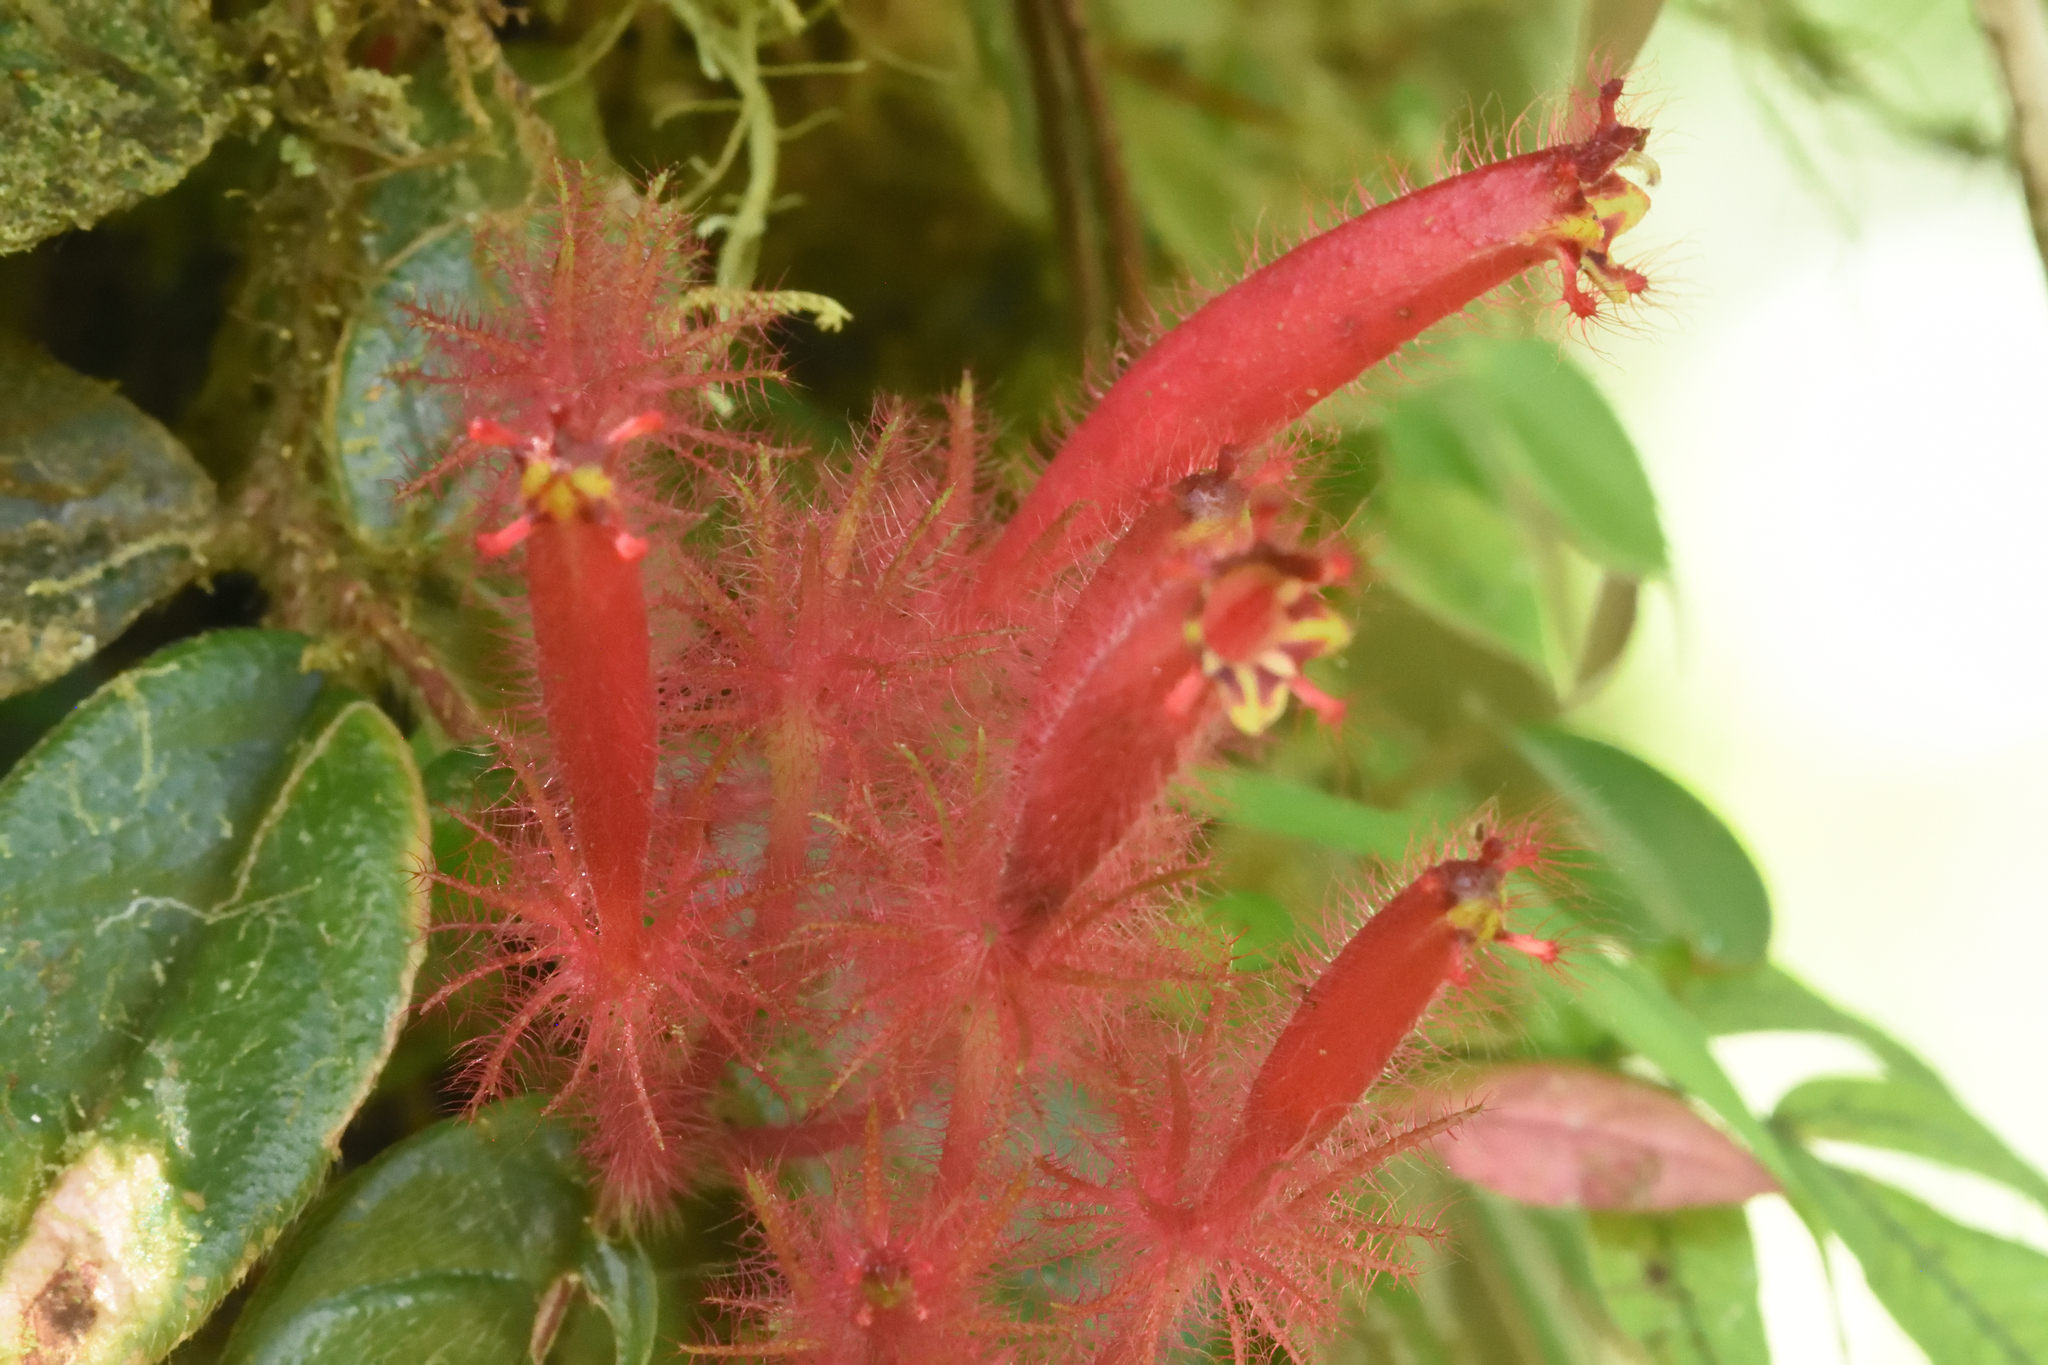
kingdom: Plantae
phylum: Tracheophyta
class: Magnoliopsida
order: Lamiales
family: Gesneriaceae
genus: Columnea
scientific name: Columnea minor
